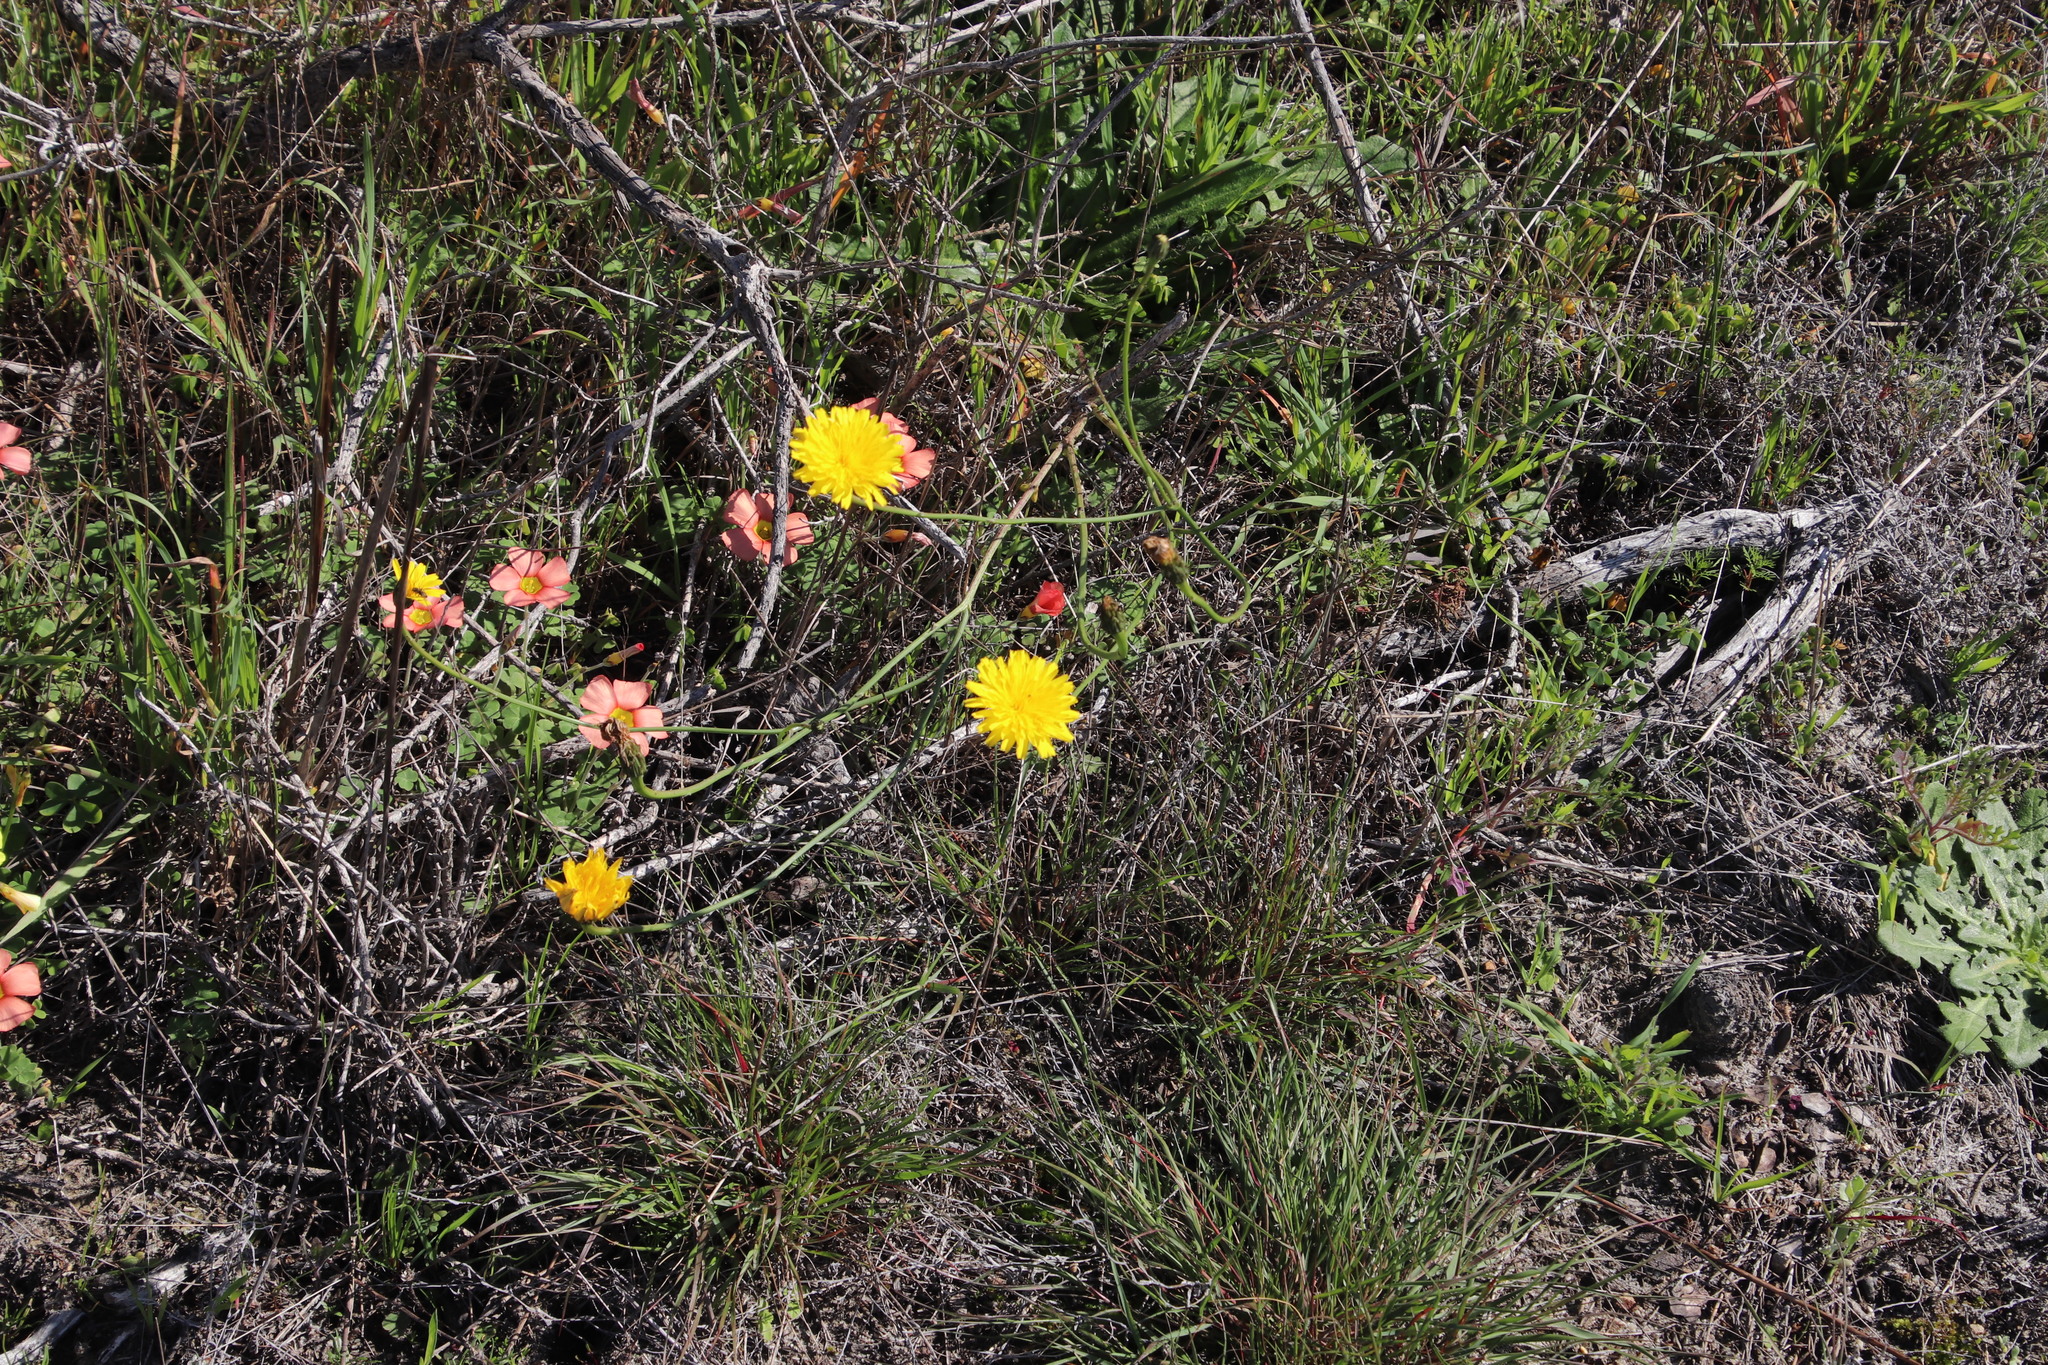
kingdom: Plantae
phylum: Tracheophyta
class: Magnoliopsida
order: Asterales
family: Asteraceae
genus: Hypochaeris
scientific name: Hypochaeris radicata
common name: Flatweed
